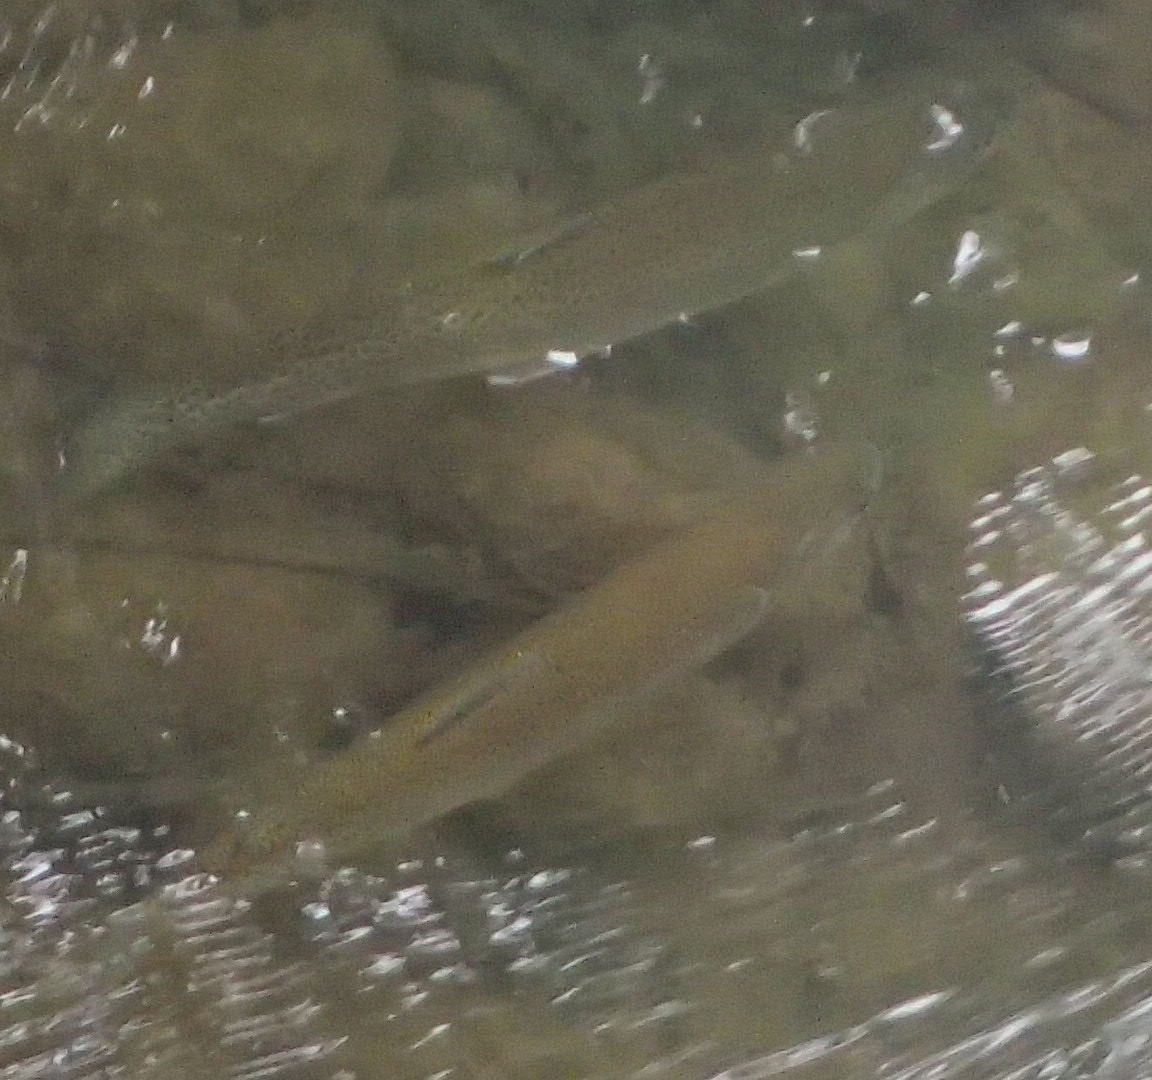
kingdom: Animalia
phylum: Chordata
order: Salmoniformes
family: Salmonidae
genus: Salvelinus
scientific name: Salvelinus malma
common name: Dolly varden charr
